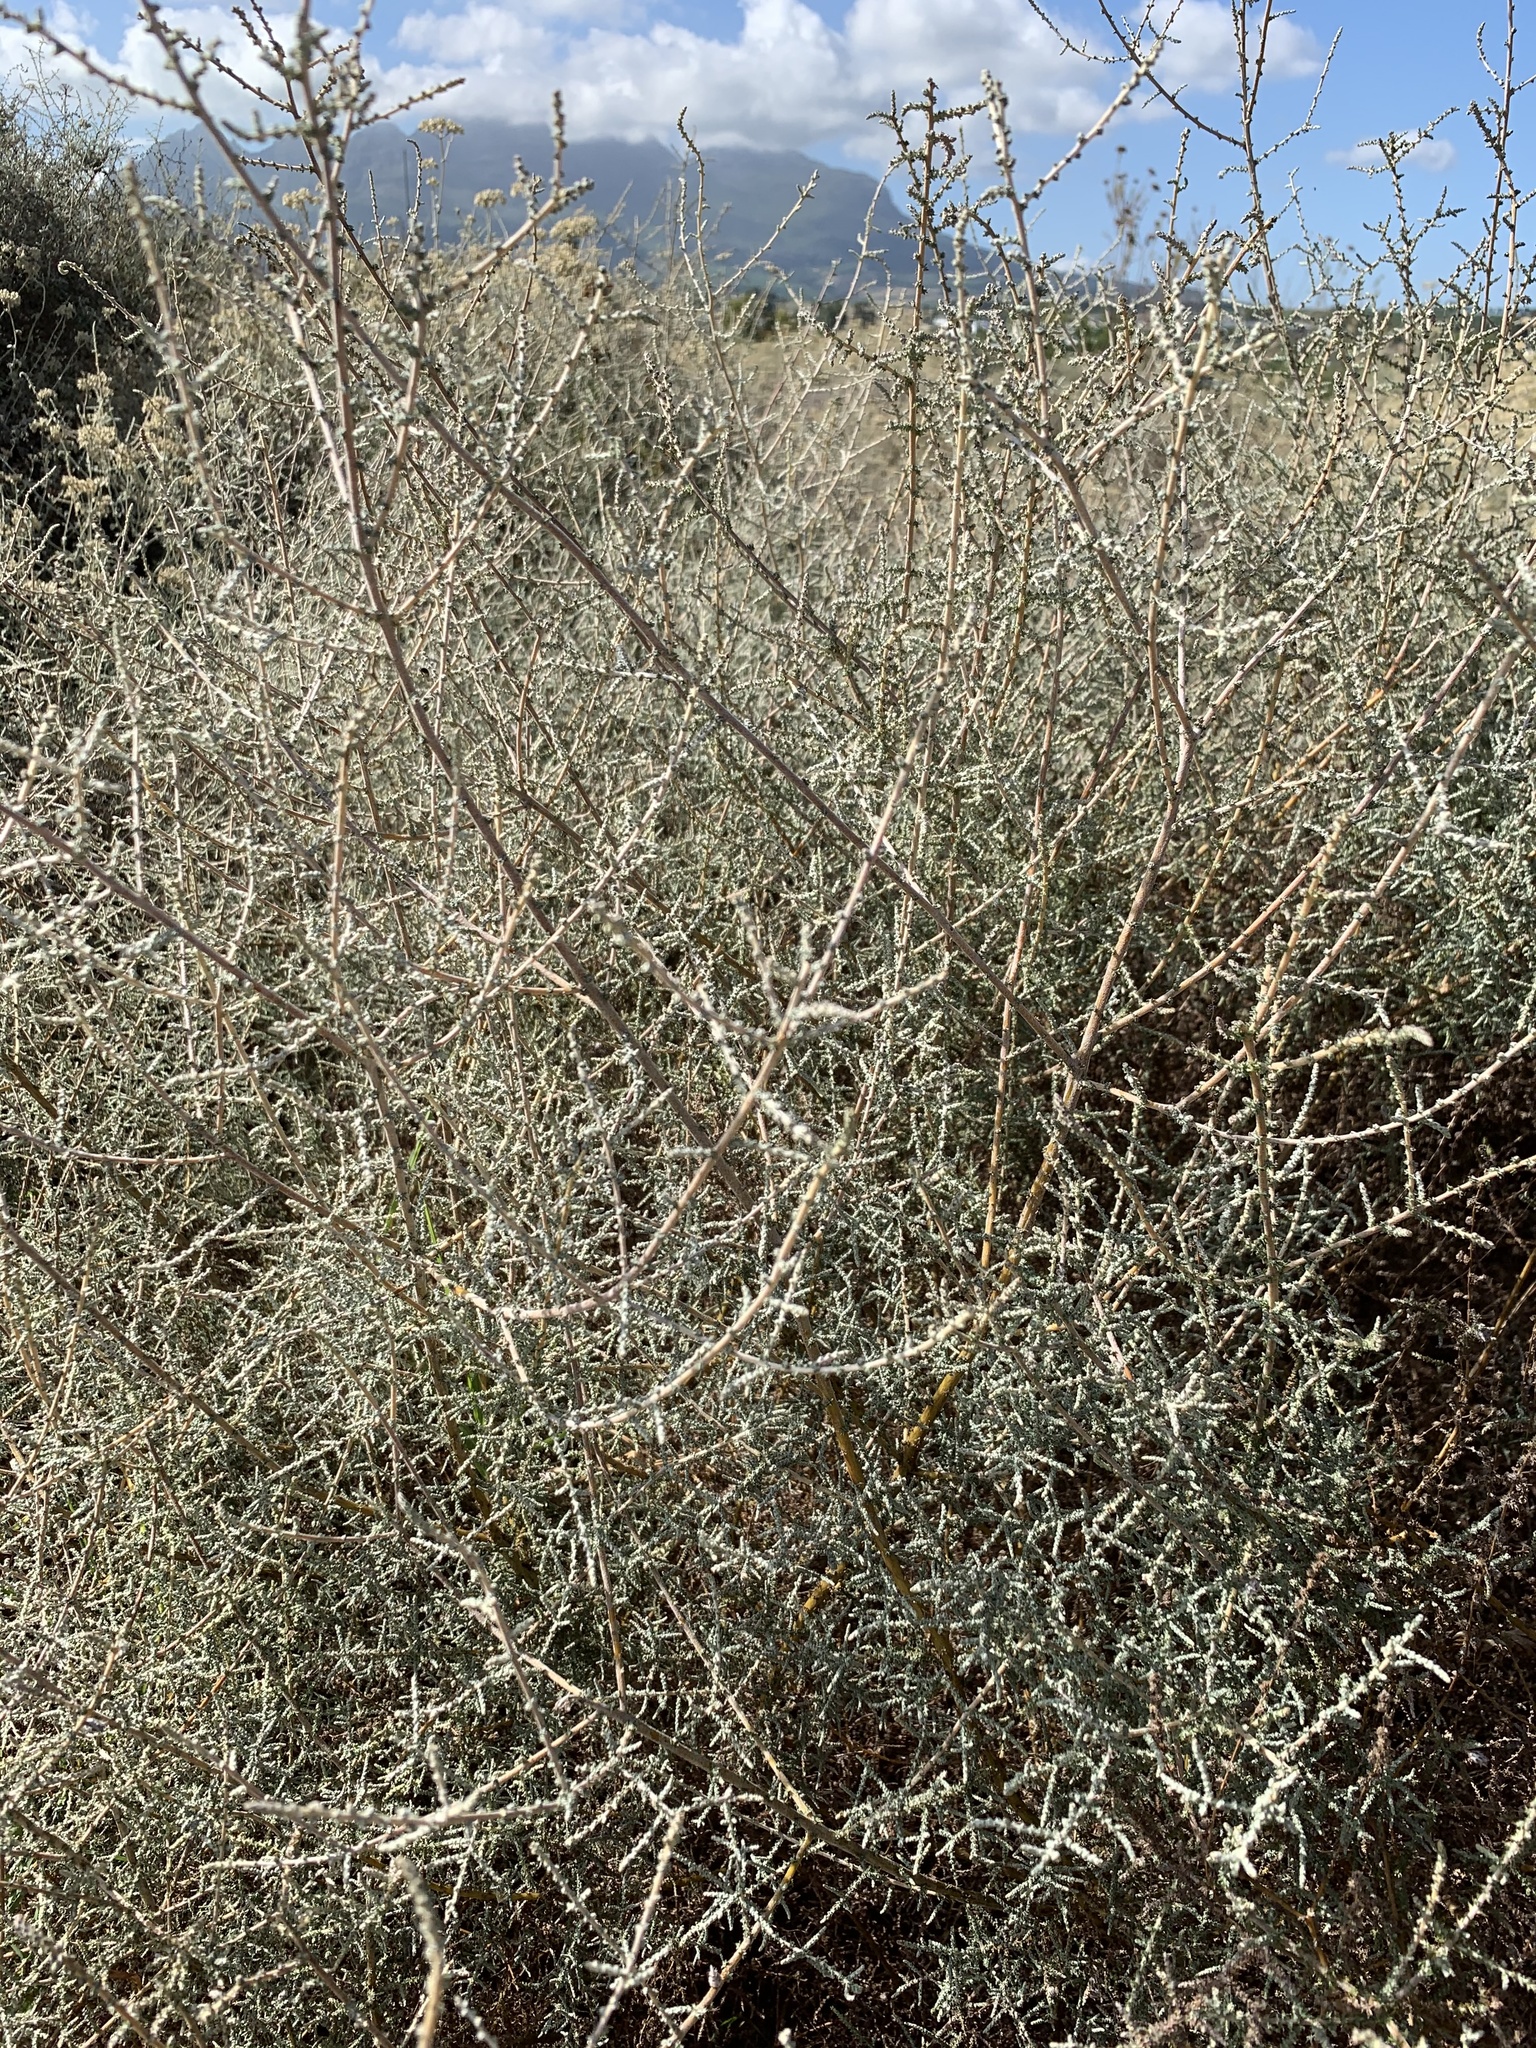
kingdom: Plantae
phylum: Tracheophyta
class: Magnoliopsida
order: Asterales
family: Asteraceae
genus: Seriphium
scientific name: Seriphium plumosum
